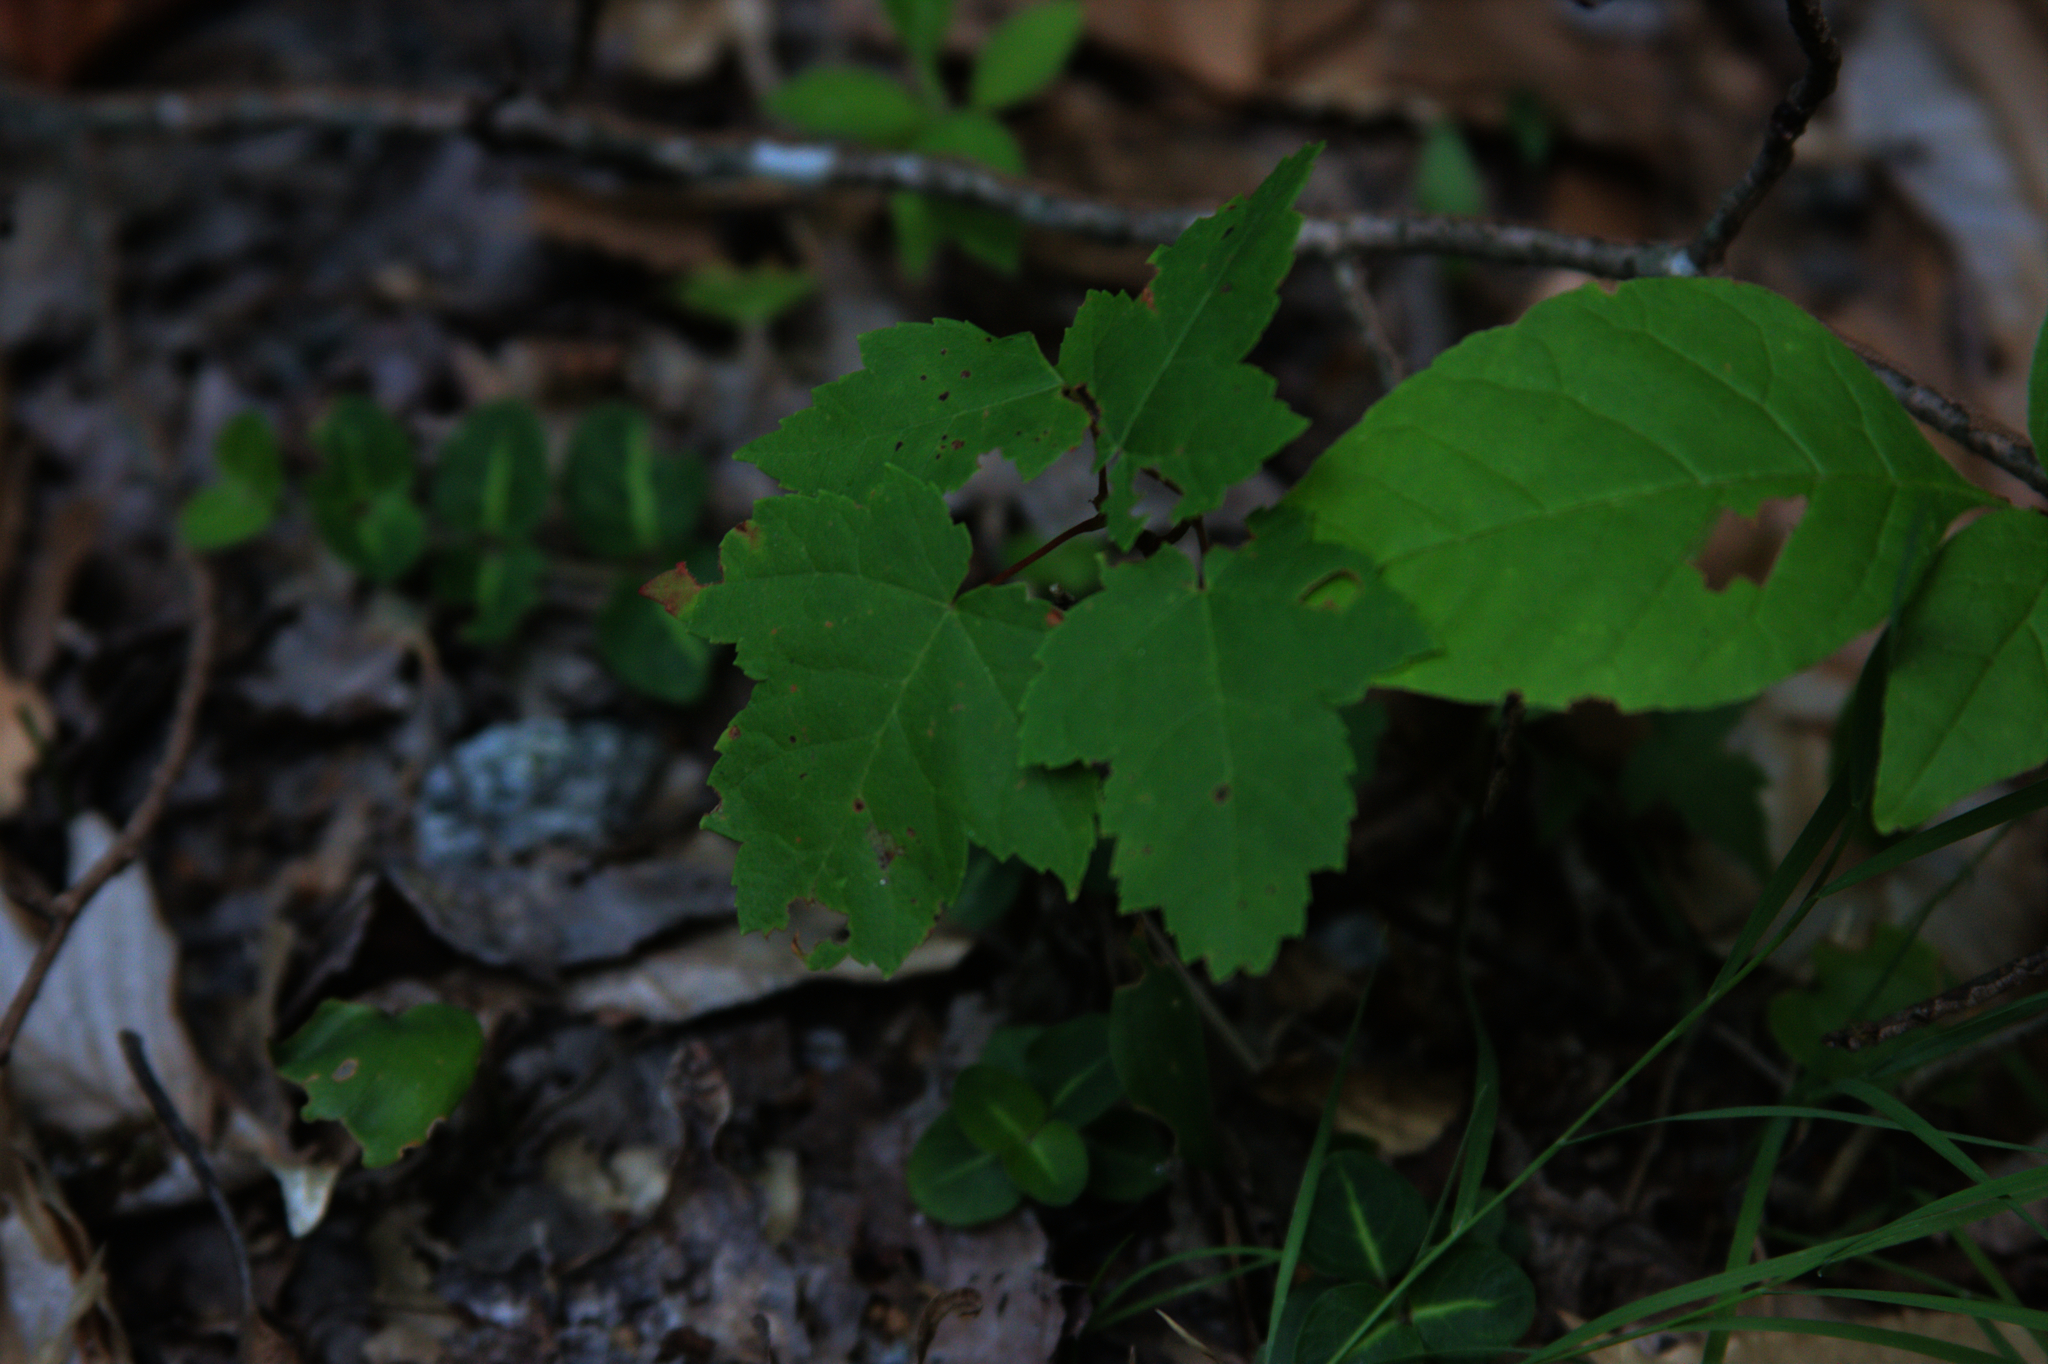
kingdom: Plantae
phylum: Tracheophyta
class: Magnoliopsida
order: Sapindales
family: Sapindaceae
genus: Acer
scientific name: Acer rubrum
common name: Red maple
